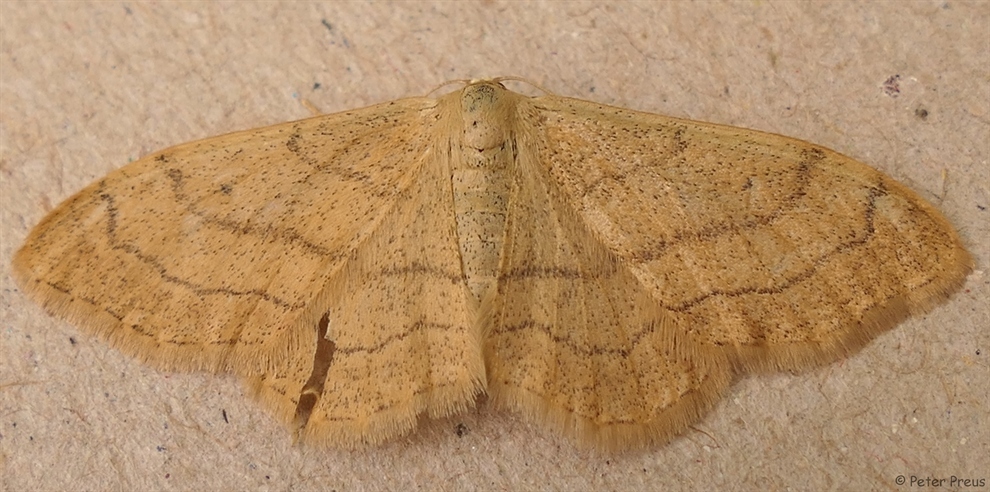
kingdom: Animalia
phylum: Arthropoda
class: Insecta
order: Lepidoptera
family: Geometridae
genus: Idaea
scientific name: Idaea aversata
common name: Riband wave
